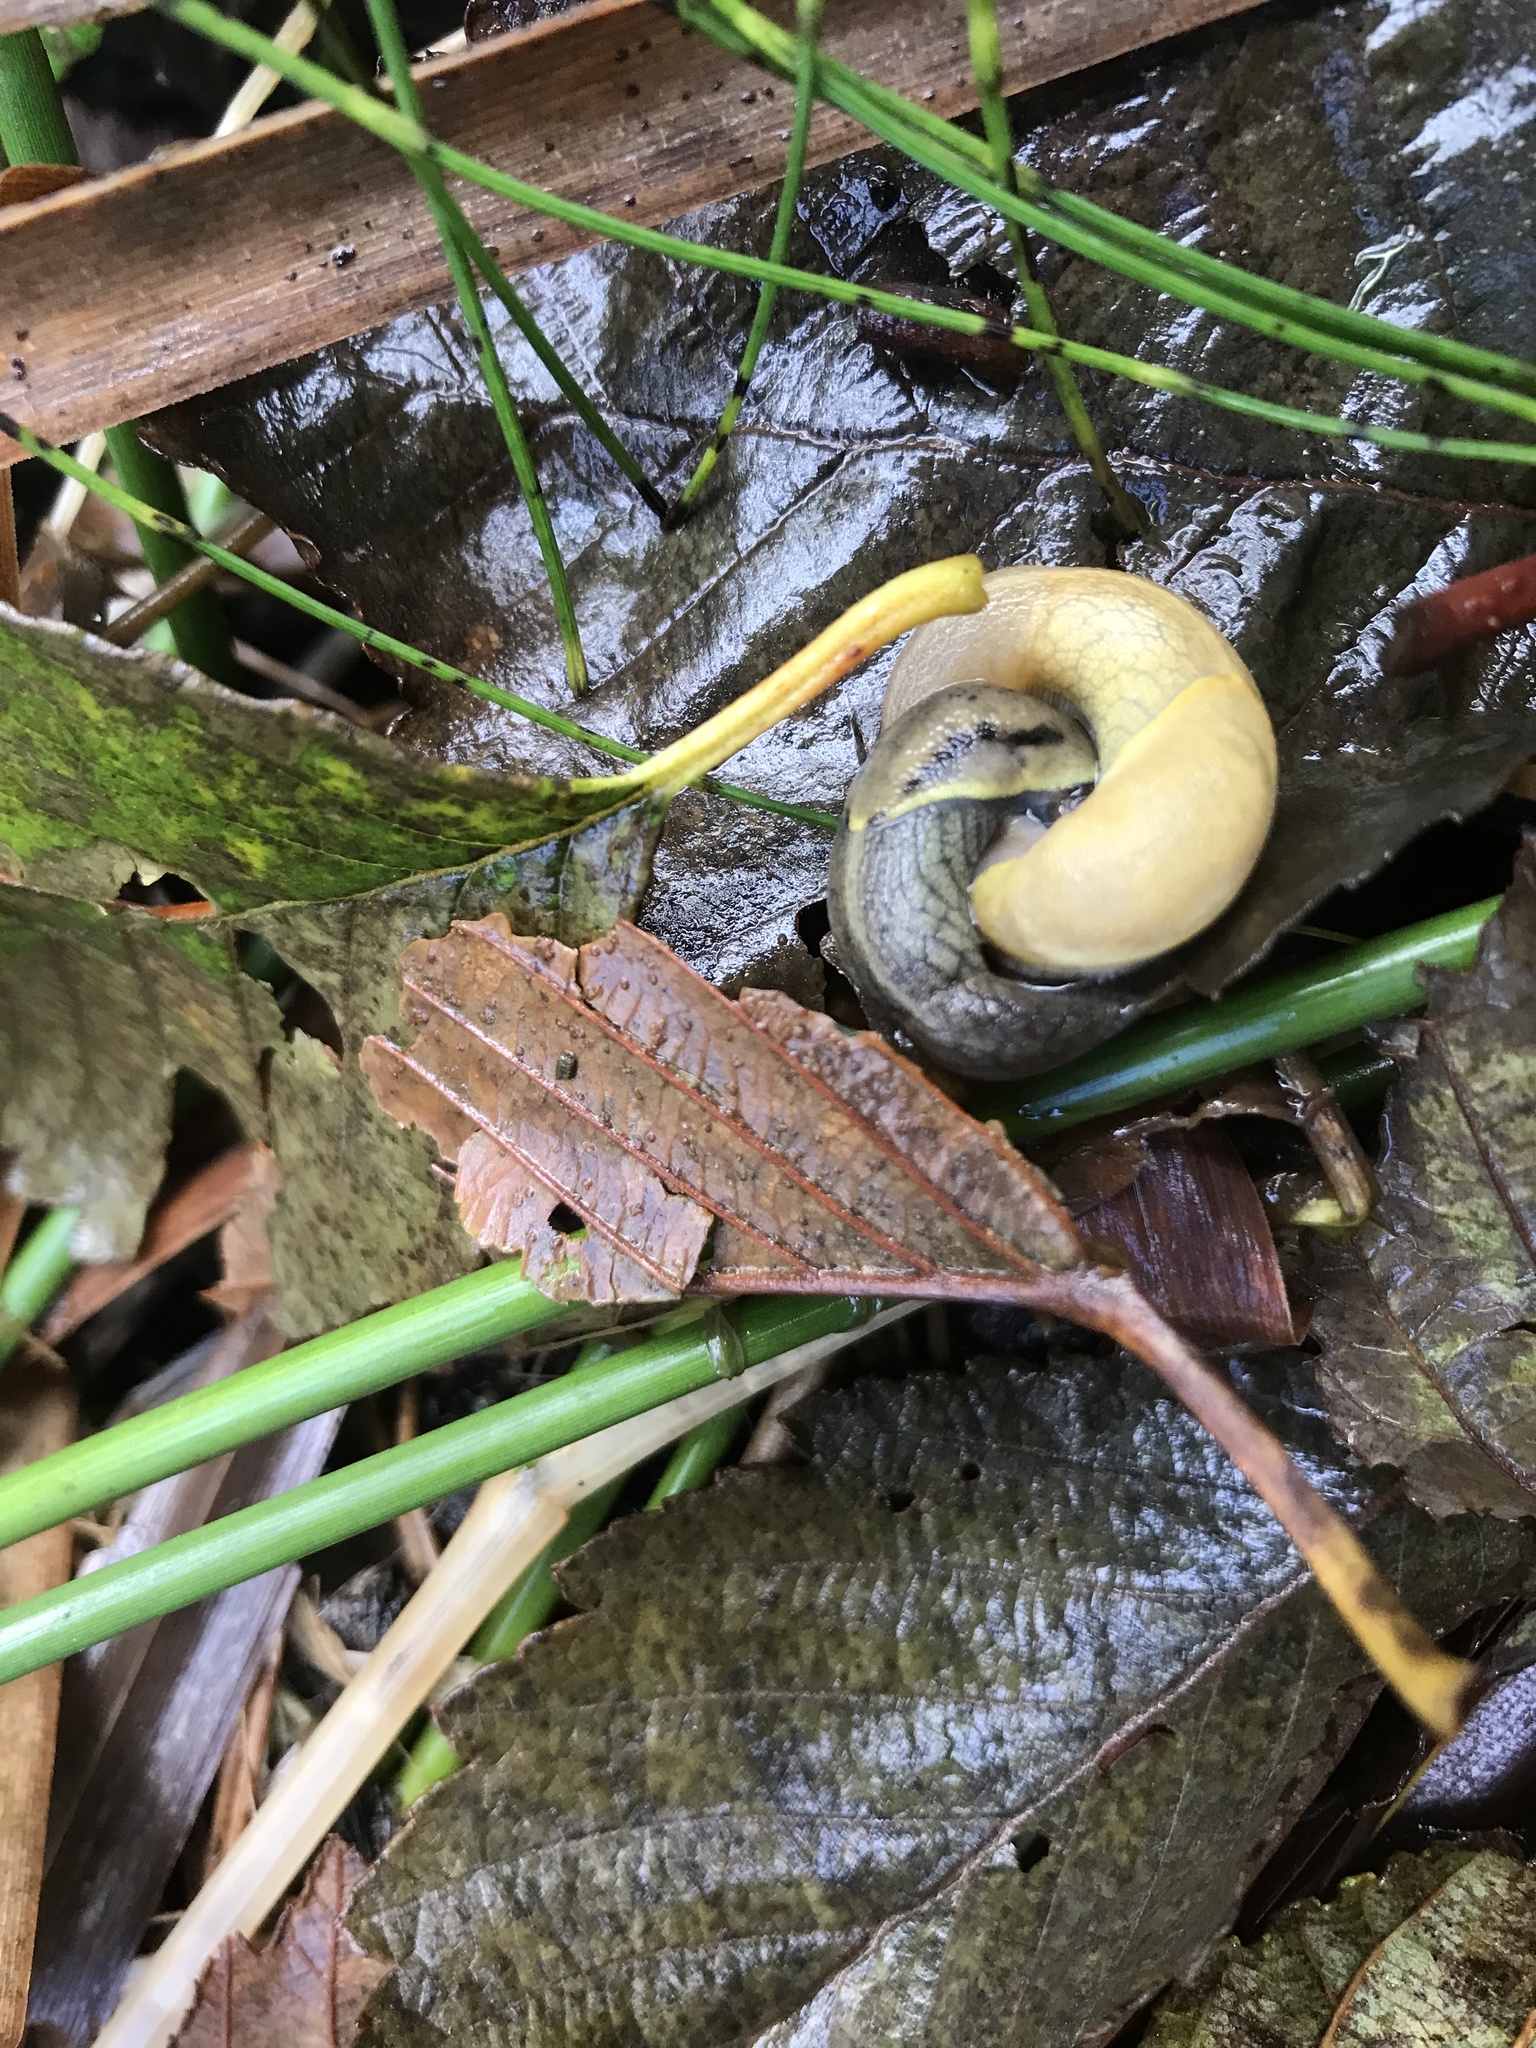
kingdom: Animalia
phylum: Mollusca
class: Gastropoda
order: Stylommatophora
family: Ariolimacidae
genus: Prophysaon
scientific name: Prophysaon foliolatum
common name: Yellow-bordered taildropper
